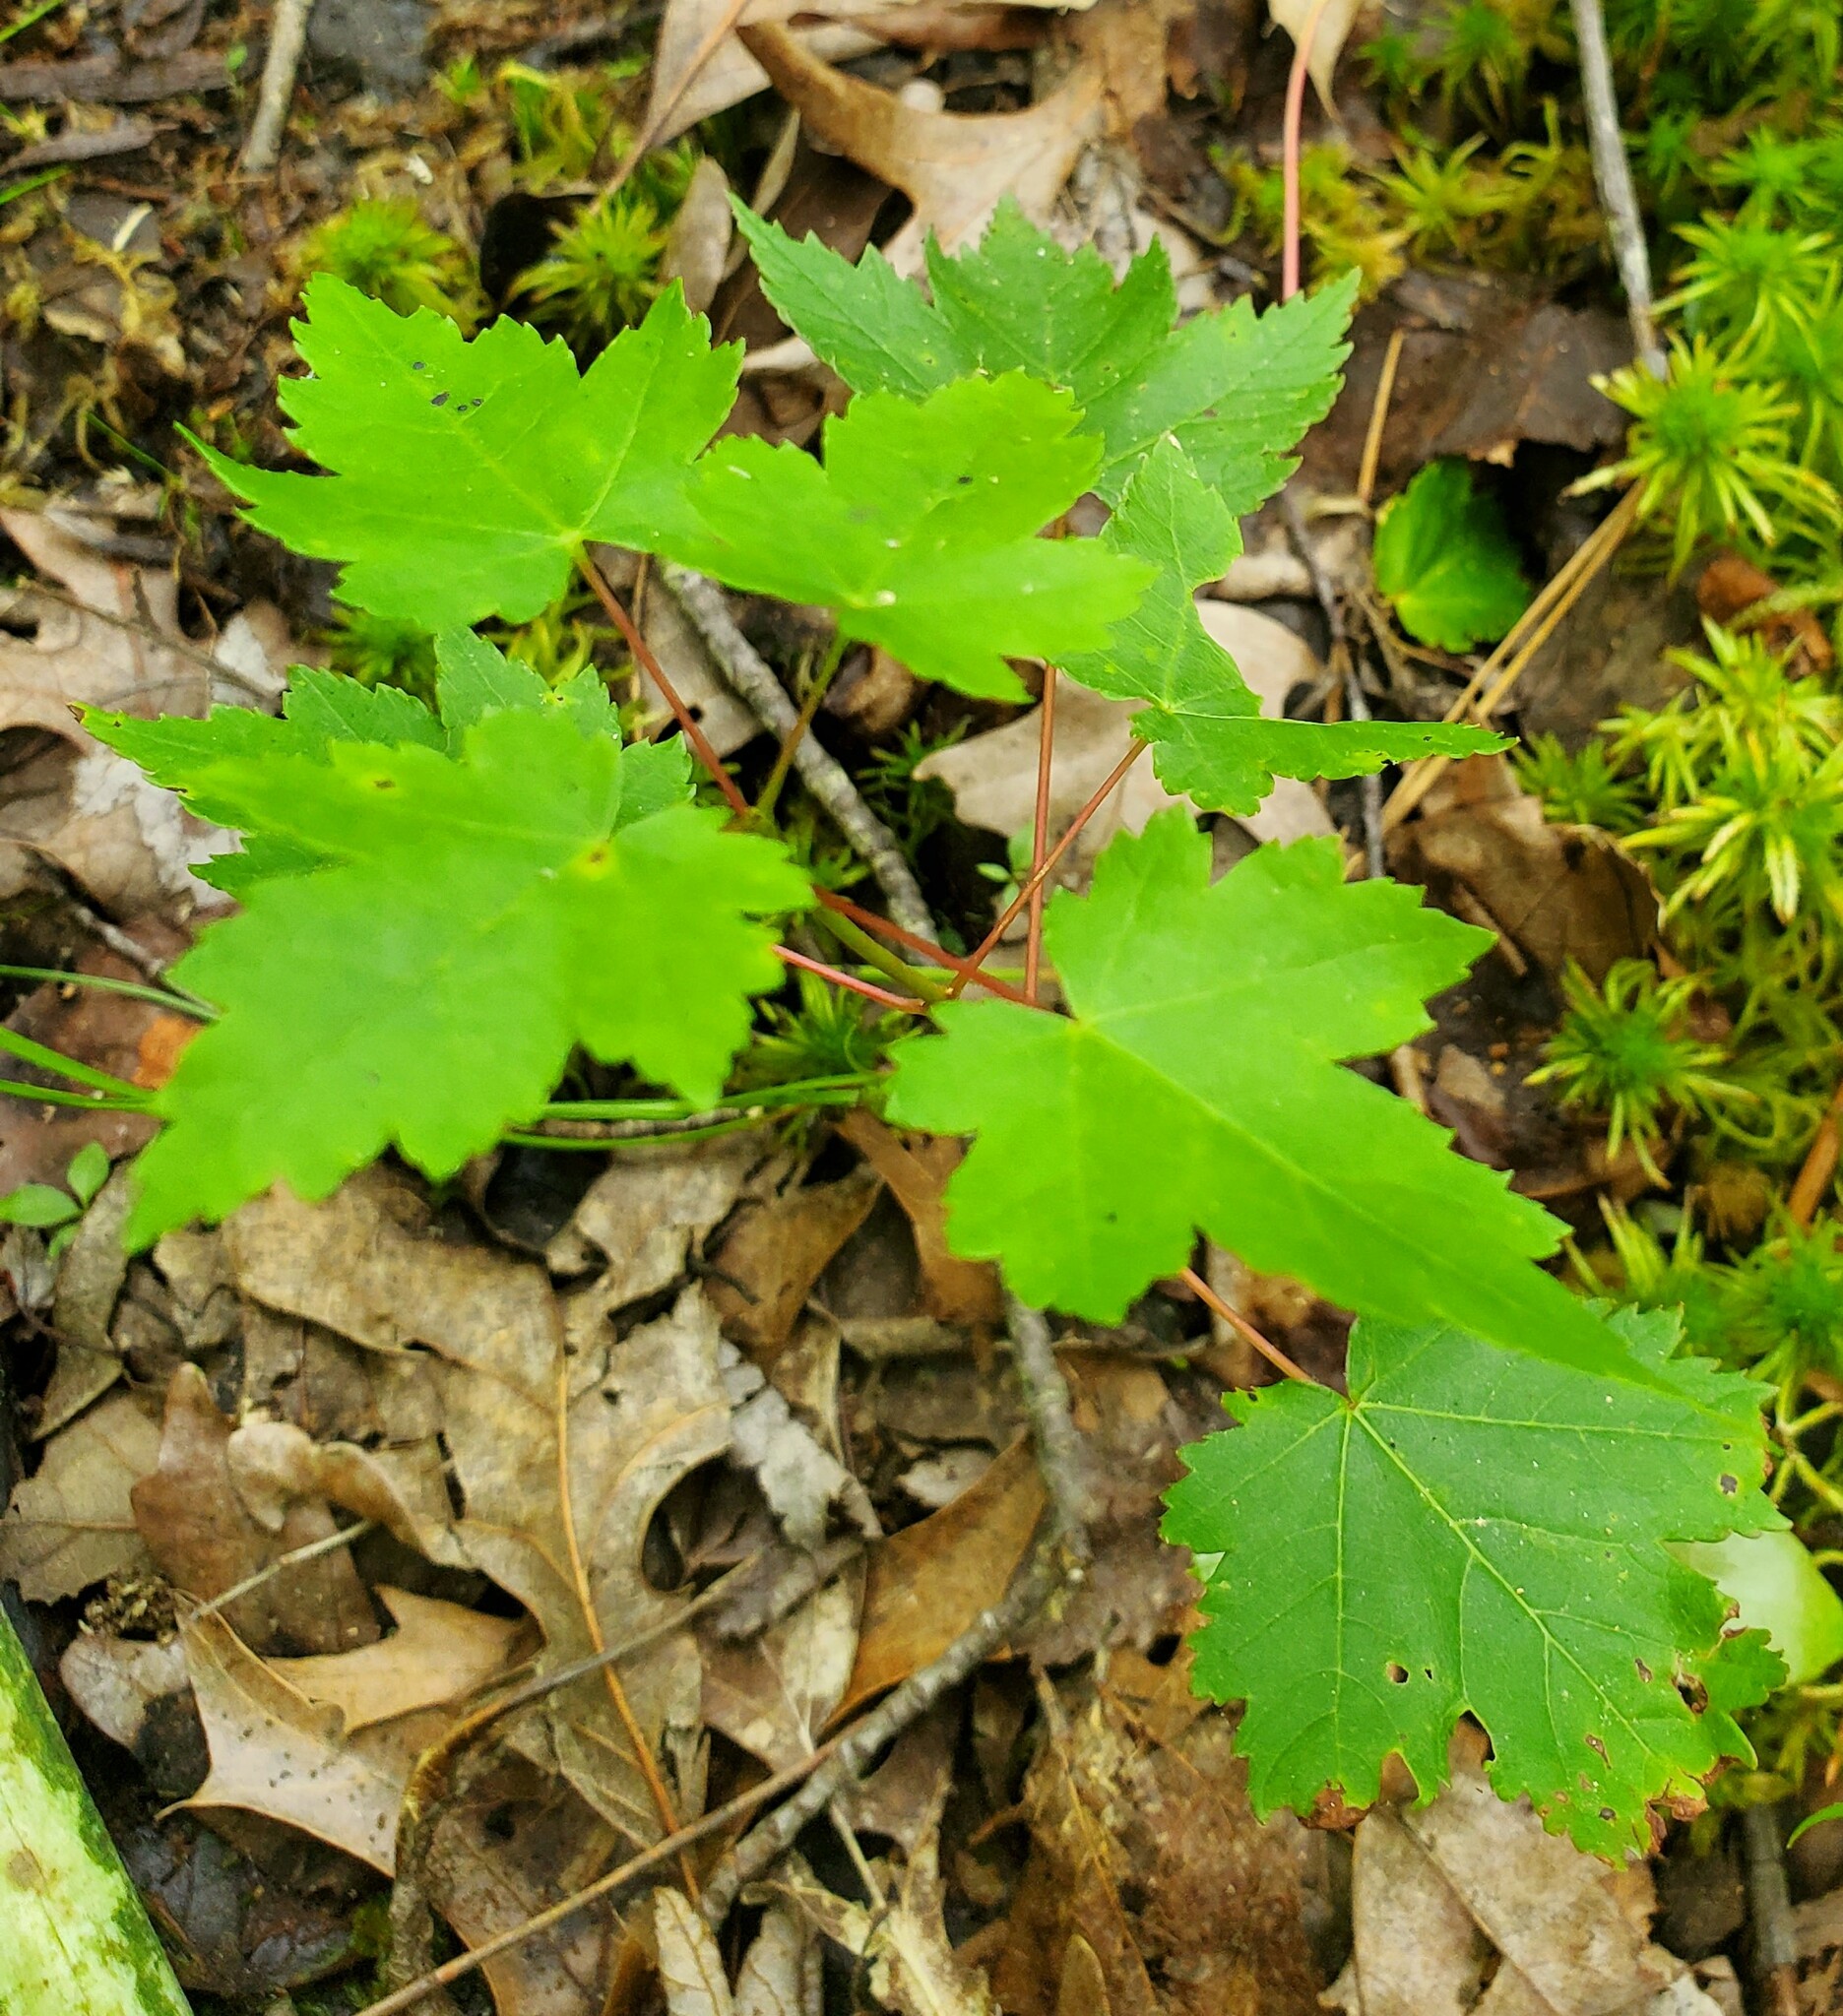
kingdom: Plantae
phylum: Tracheophyta
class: Magnoliopsida
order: Sapindales
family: Sapindaceae
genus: Acer
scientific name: Acer rubrum
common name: Red maple
